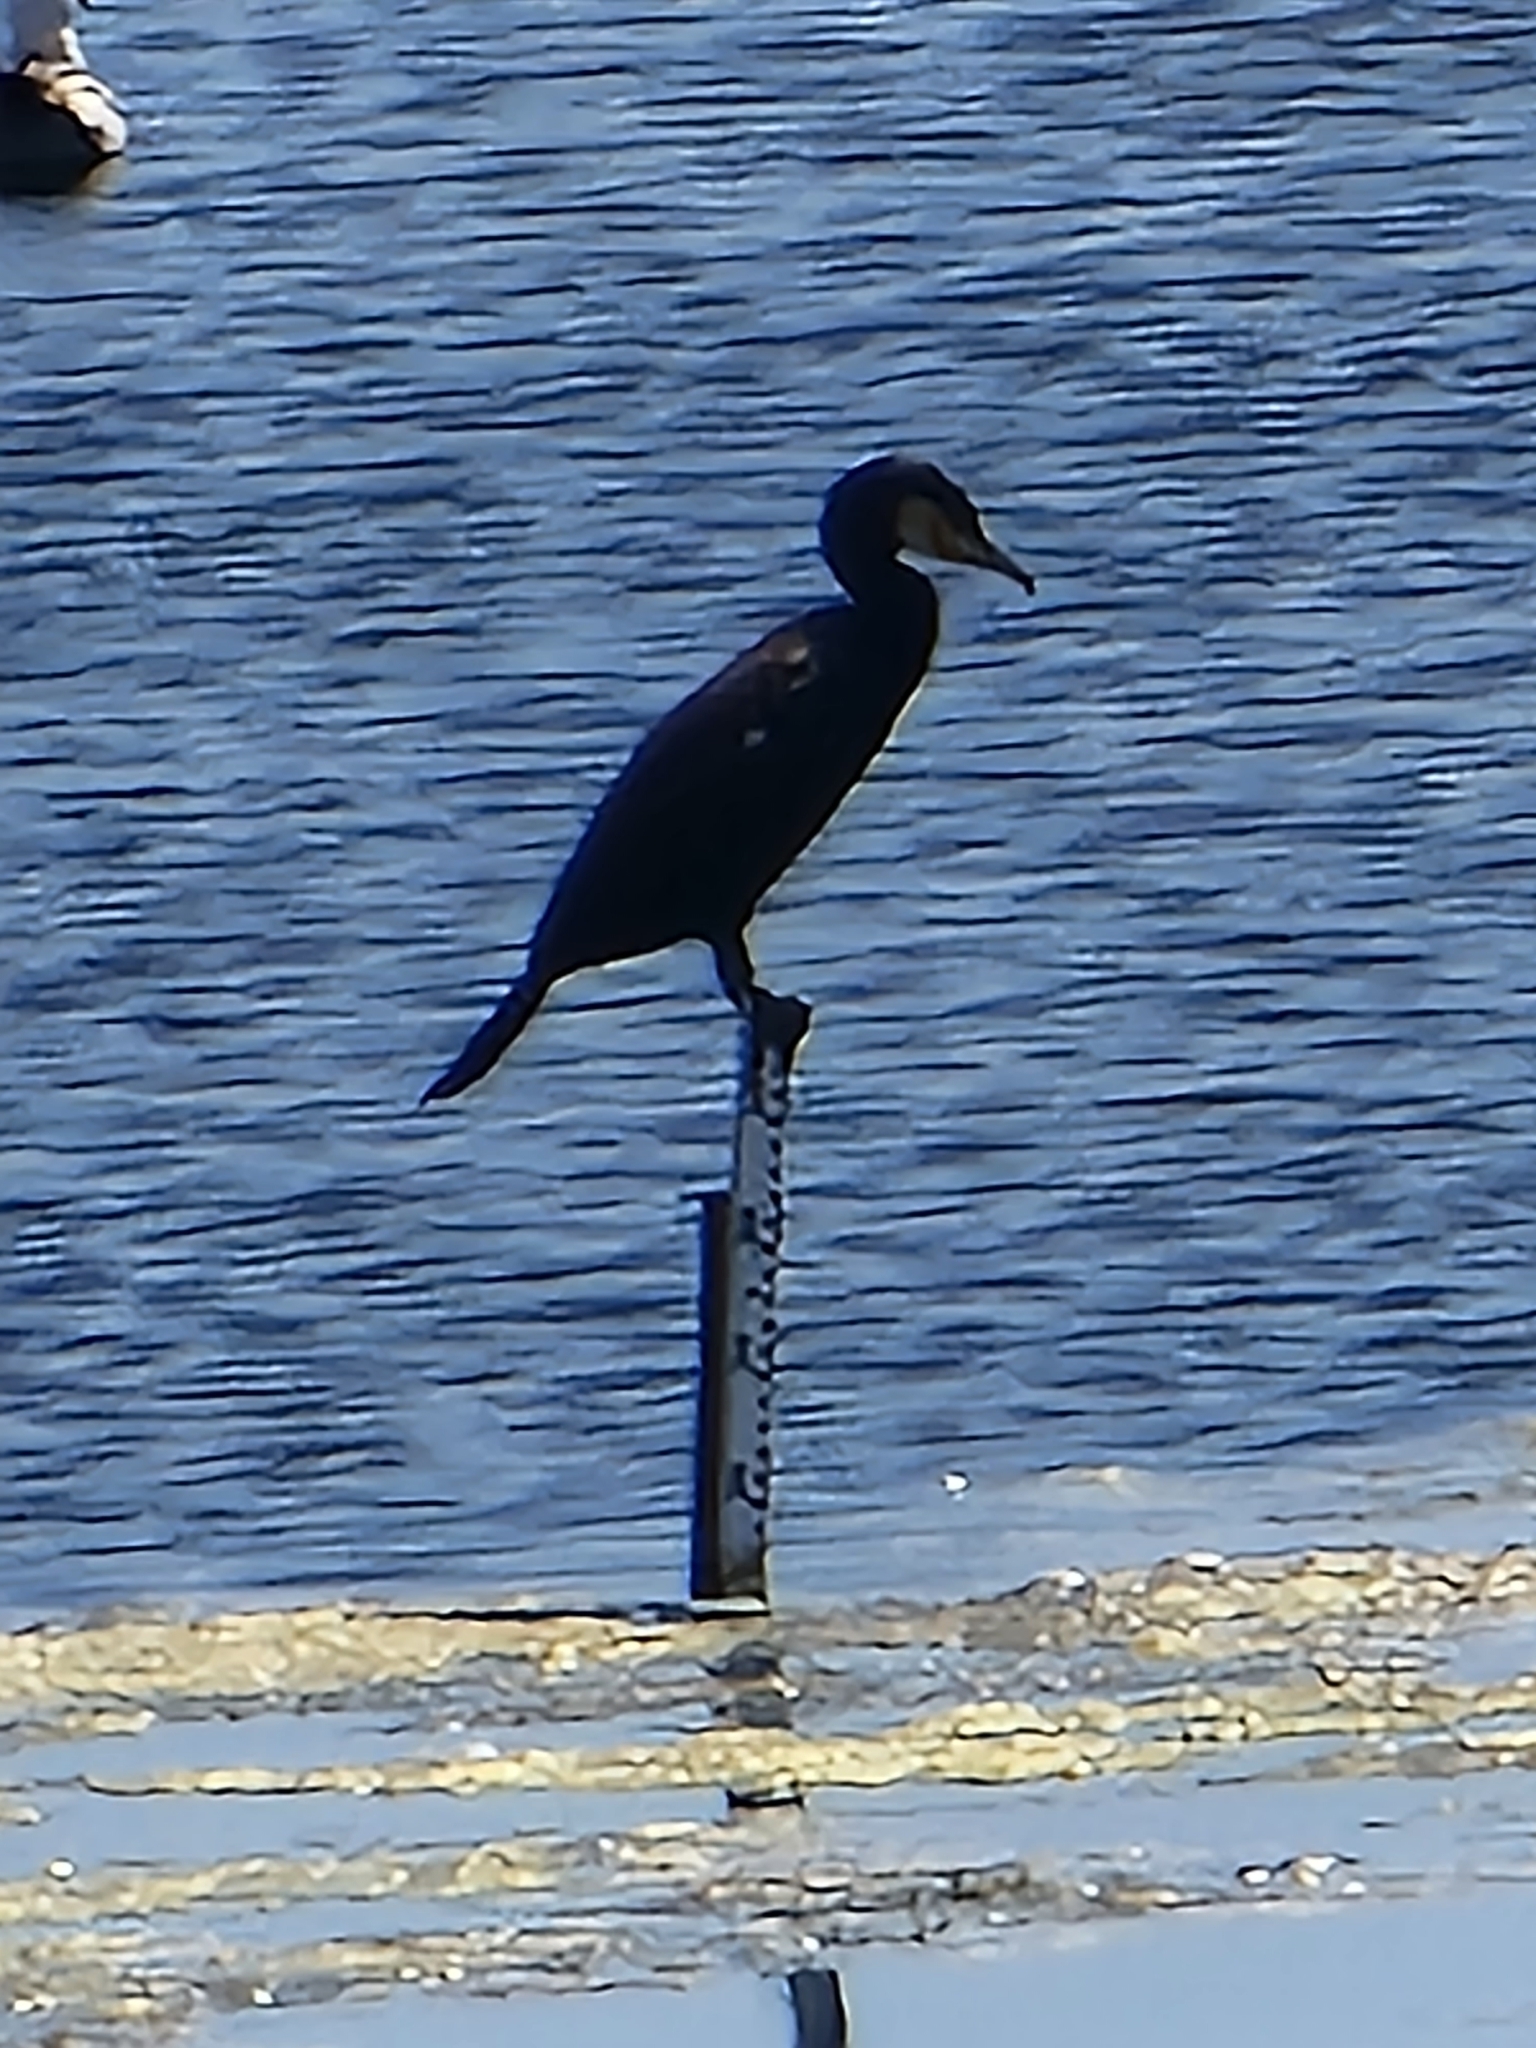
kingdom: Animalia
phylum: Chordata
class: Aves
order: Suliformes
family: Phalacrocoracidae
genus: Phalacrocorax
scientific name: Phalacrocorax carbo
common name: Great cormorant
